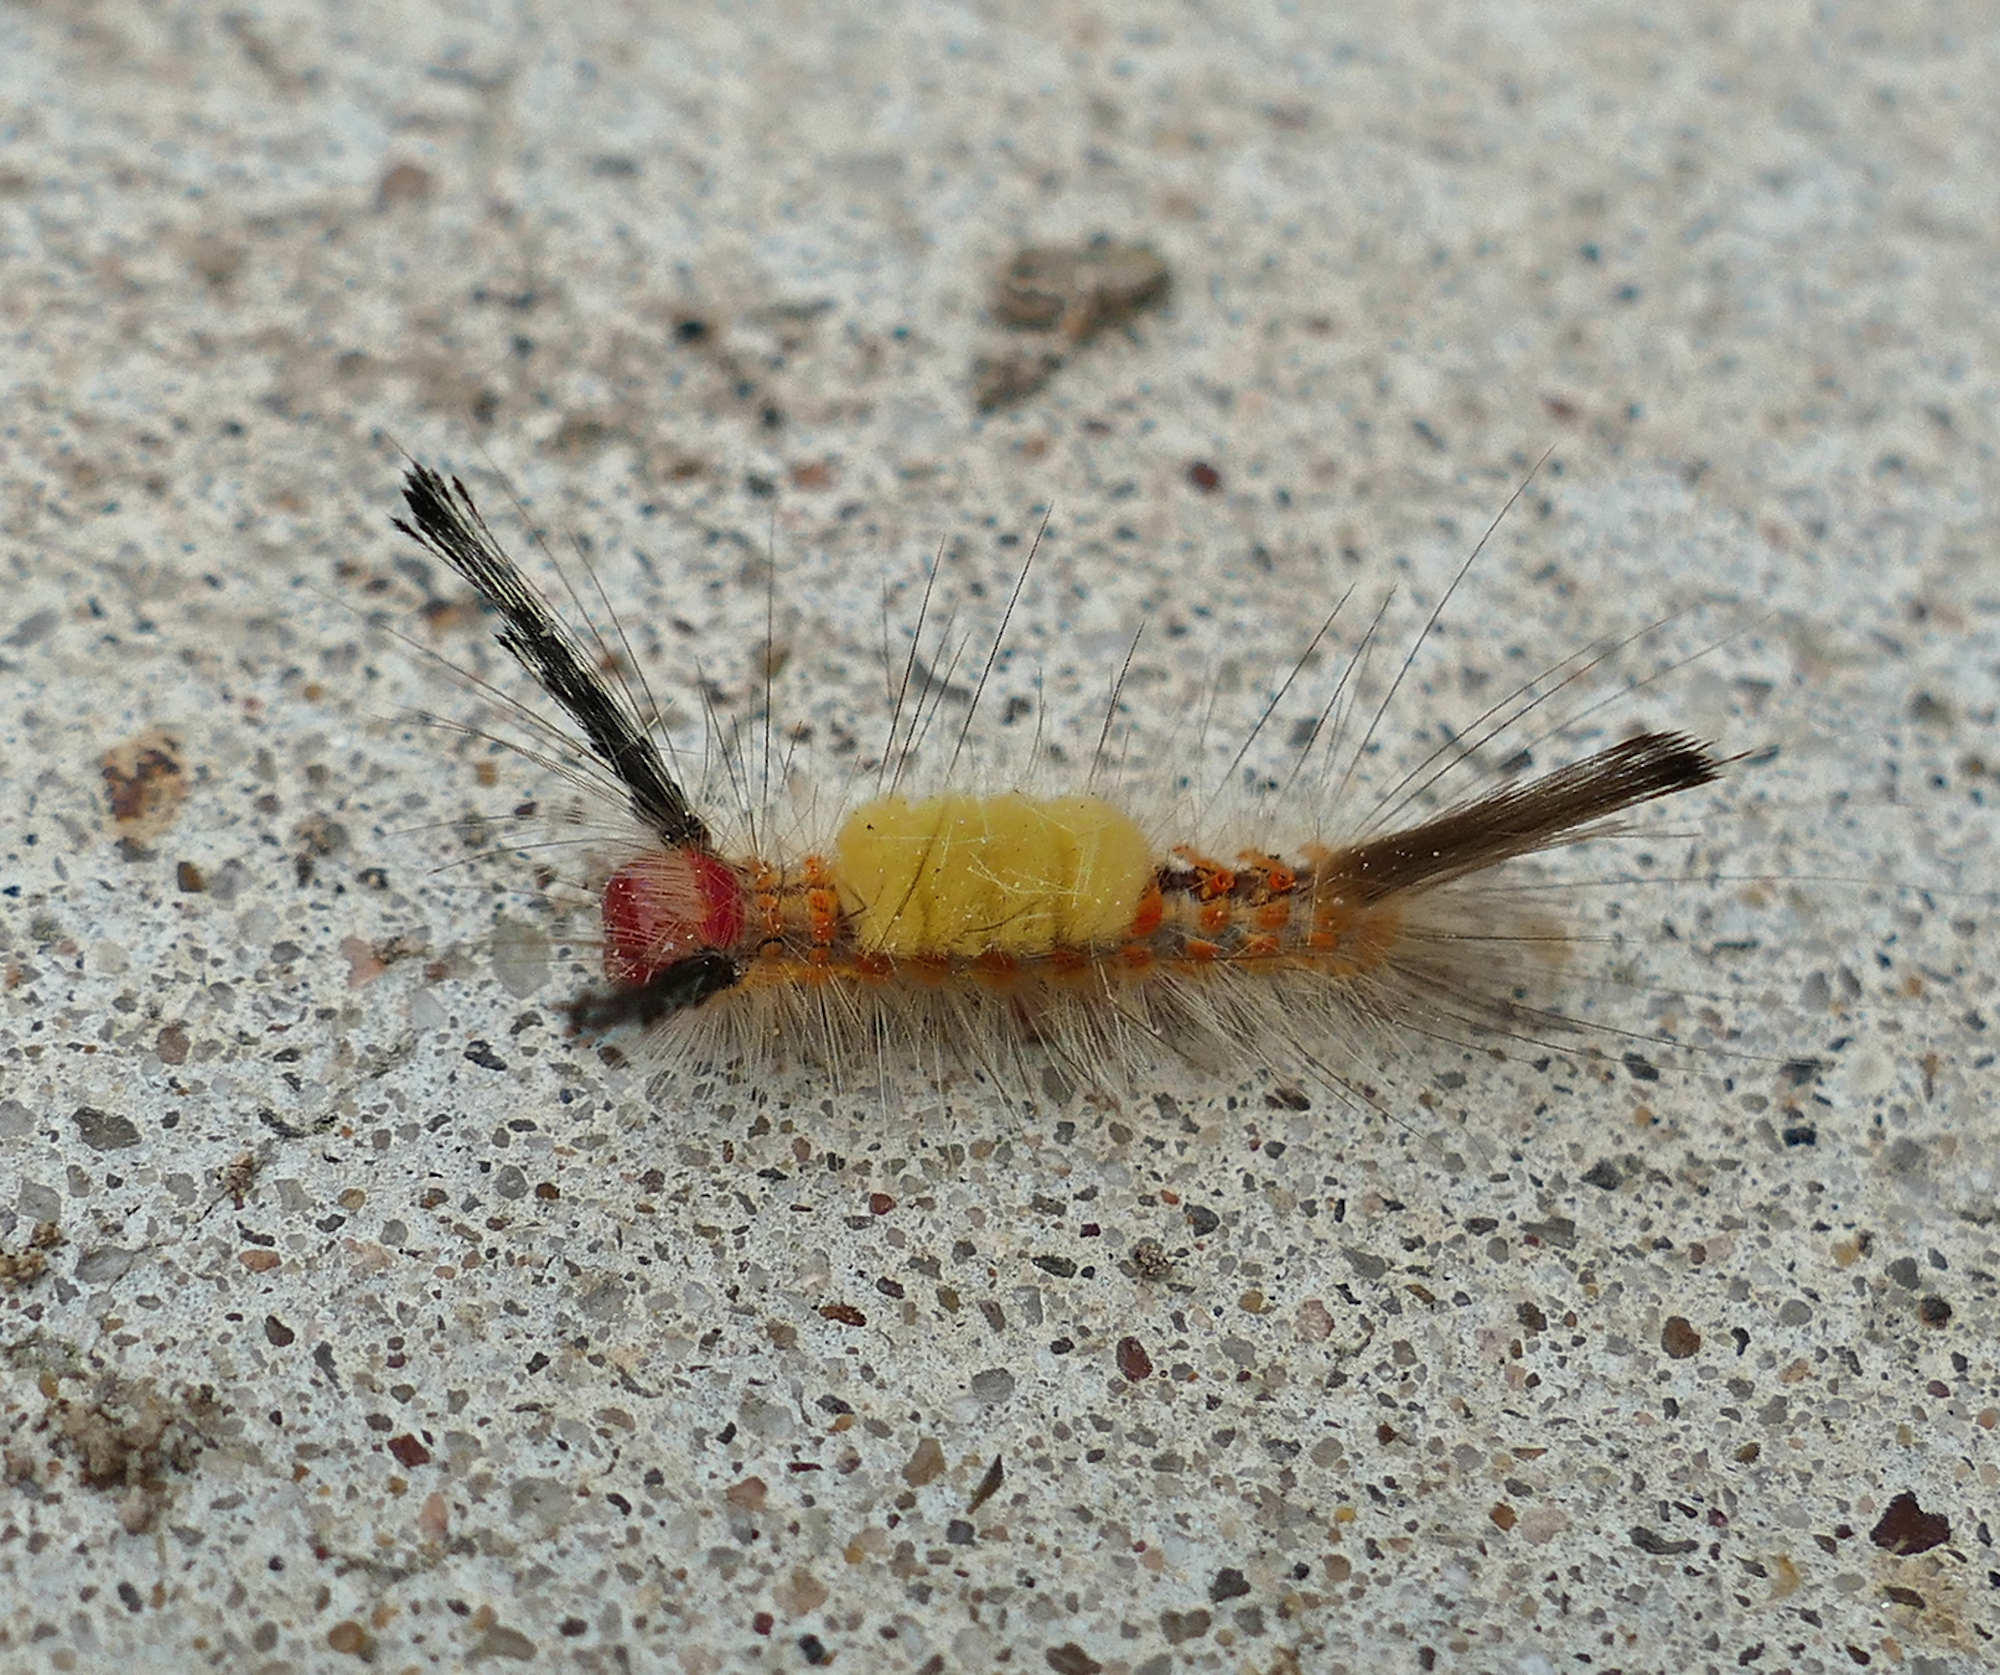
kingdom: Animalia
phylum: Arthropoda
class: Insecta
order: Lepidoptera
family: Erebidae
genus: Orgyia
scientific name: Orgyia detrita
